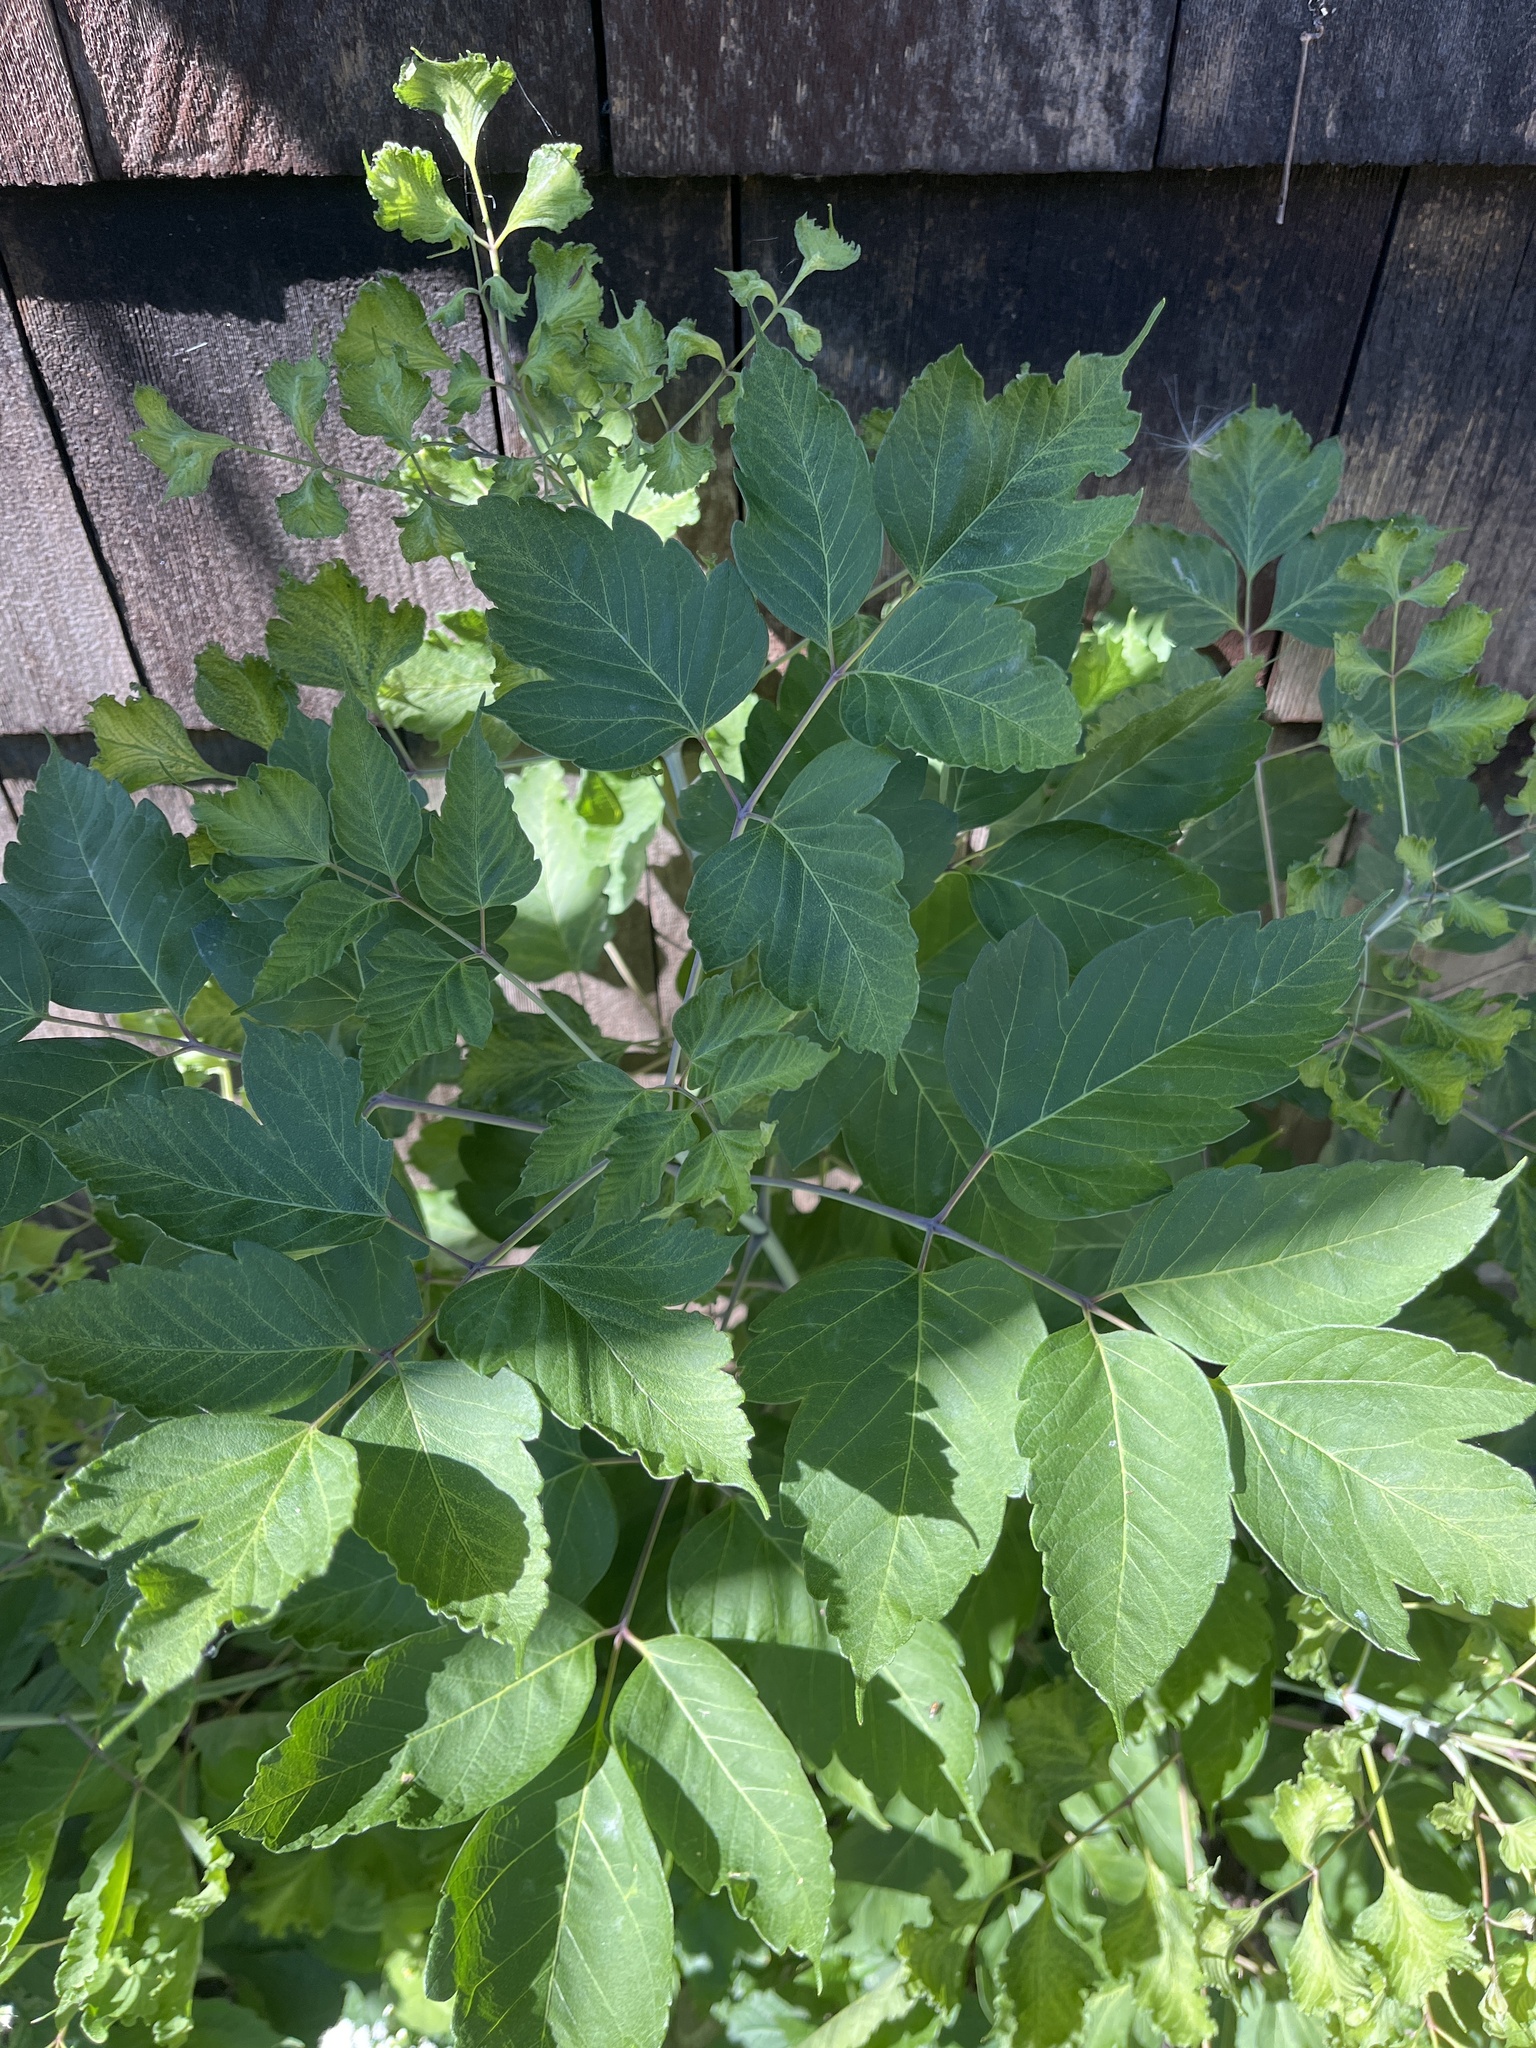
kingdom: Plantae
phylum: Tracheophyta
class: Magnoliopsida
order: Sapindales
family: Sapindaceae
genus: Acer
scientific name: Acer negundo
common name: Ashleaf maple
